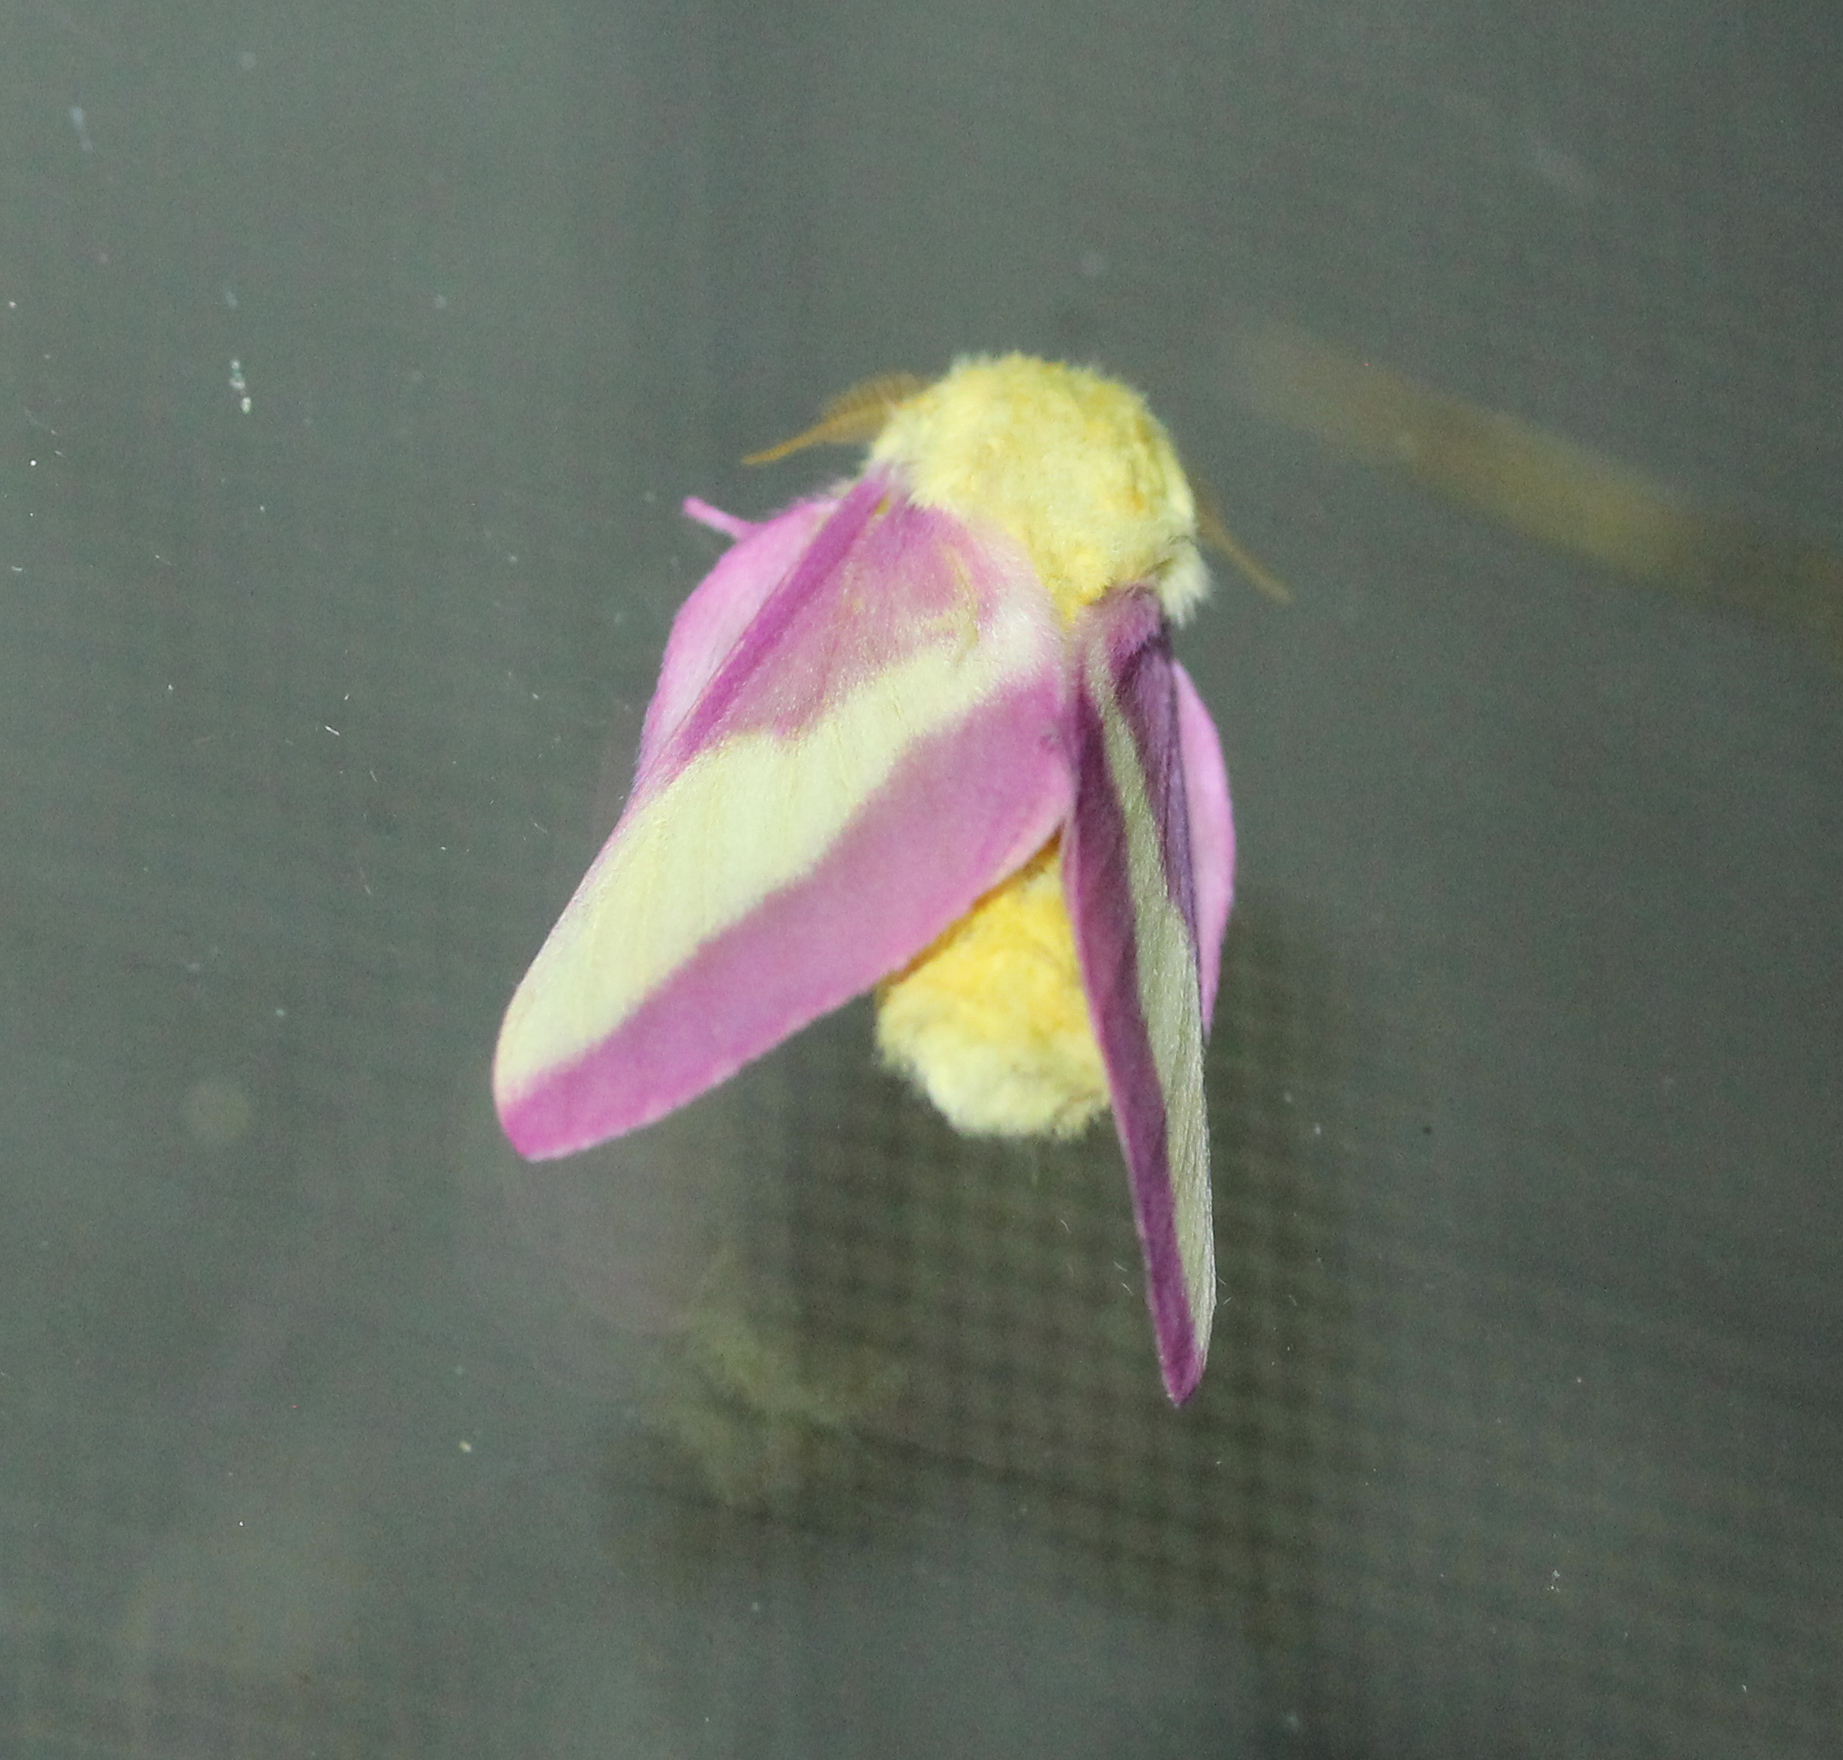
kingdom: Animalia
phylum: Arthropoda
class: Insecta
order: Lepidoptera
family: Saturniidae
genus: Dryocampa
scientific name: Dryocampa rubicunda
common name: Rosy maple moth
